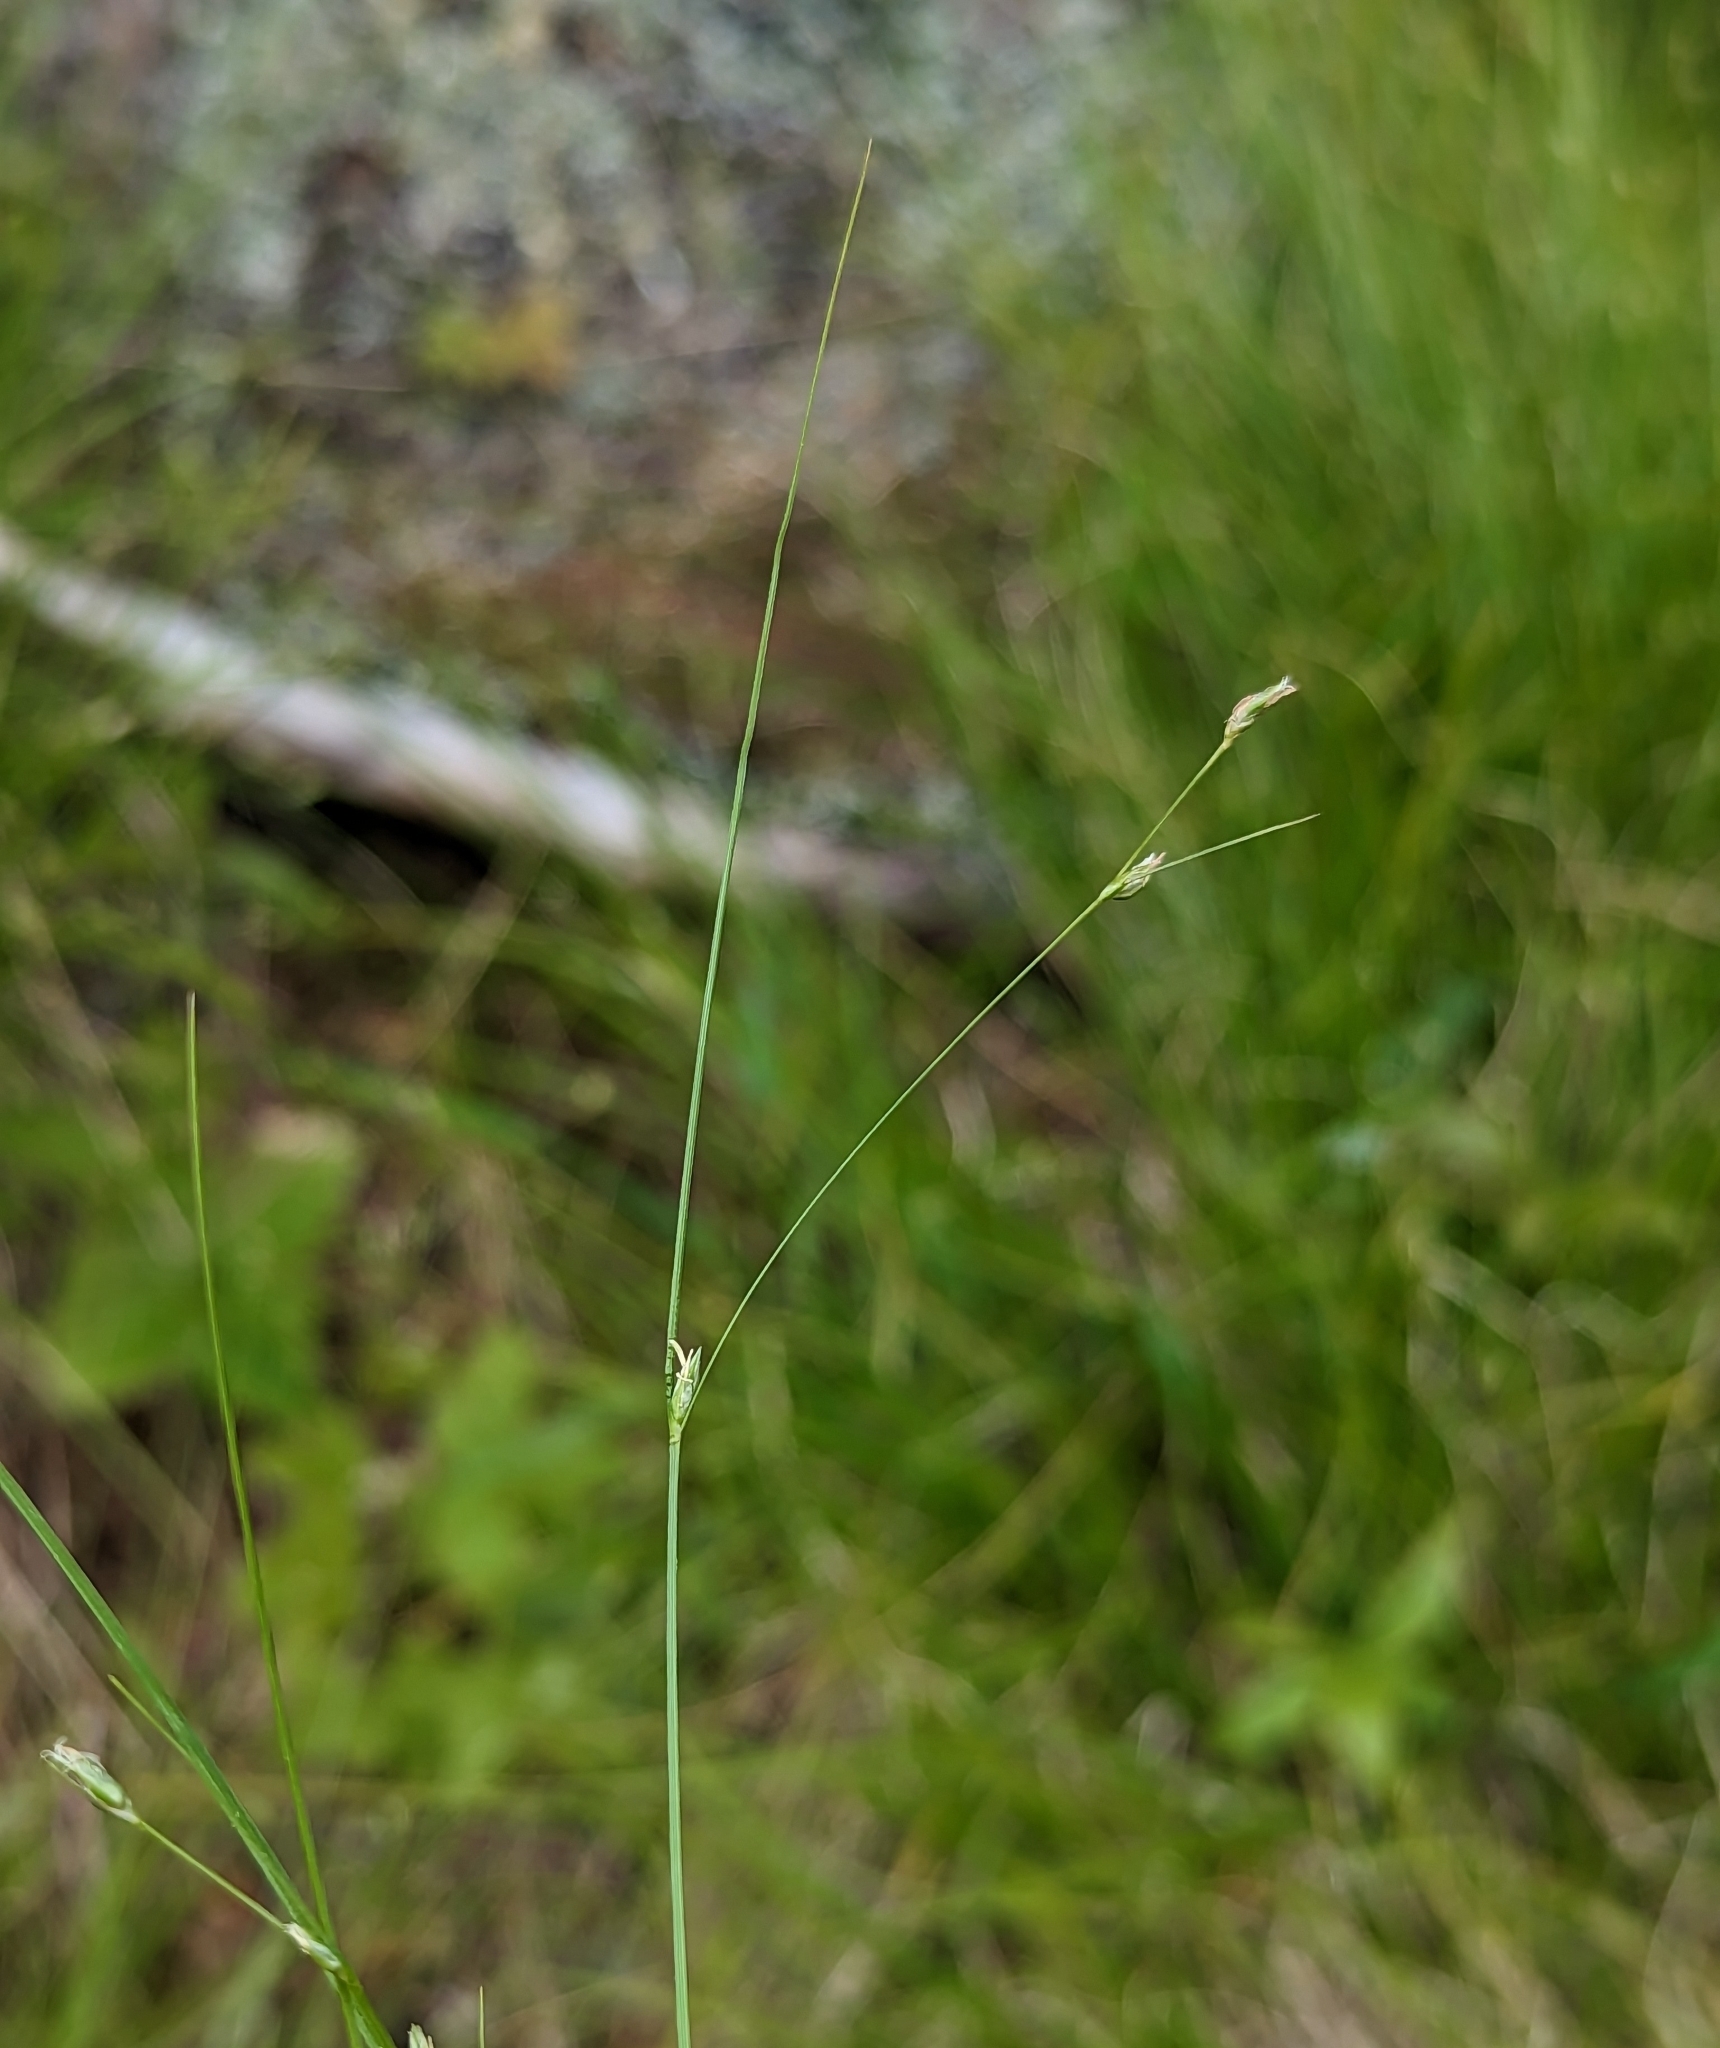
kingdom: Plantae
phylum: Tracheophyta
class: Liliopsida
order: Poales
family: Cyperaceae
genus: Carex
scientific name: Carex trisperma
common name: Three-seeded sedge
